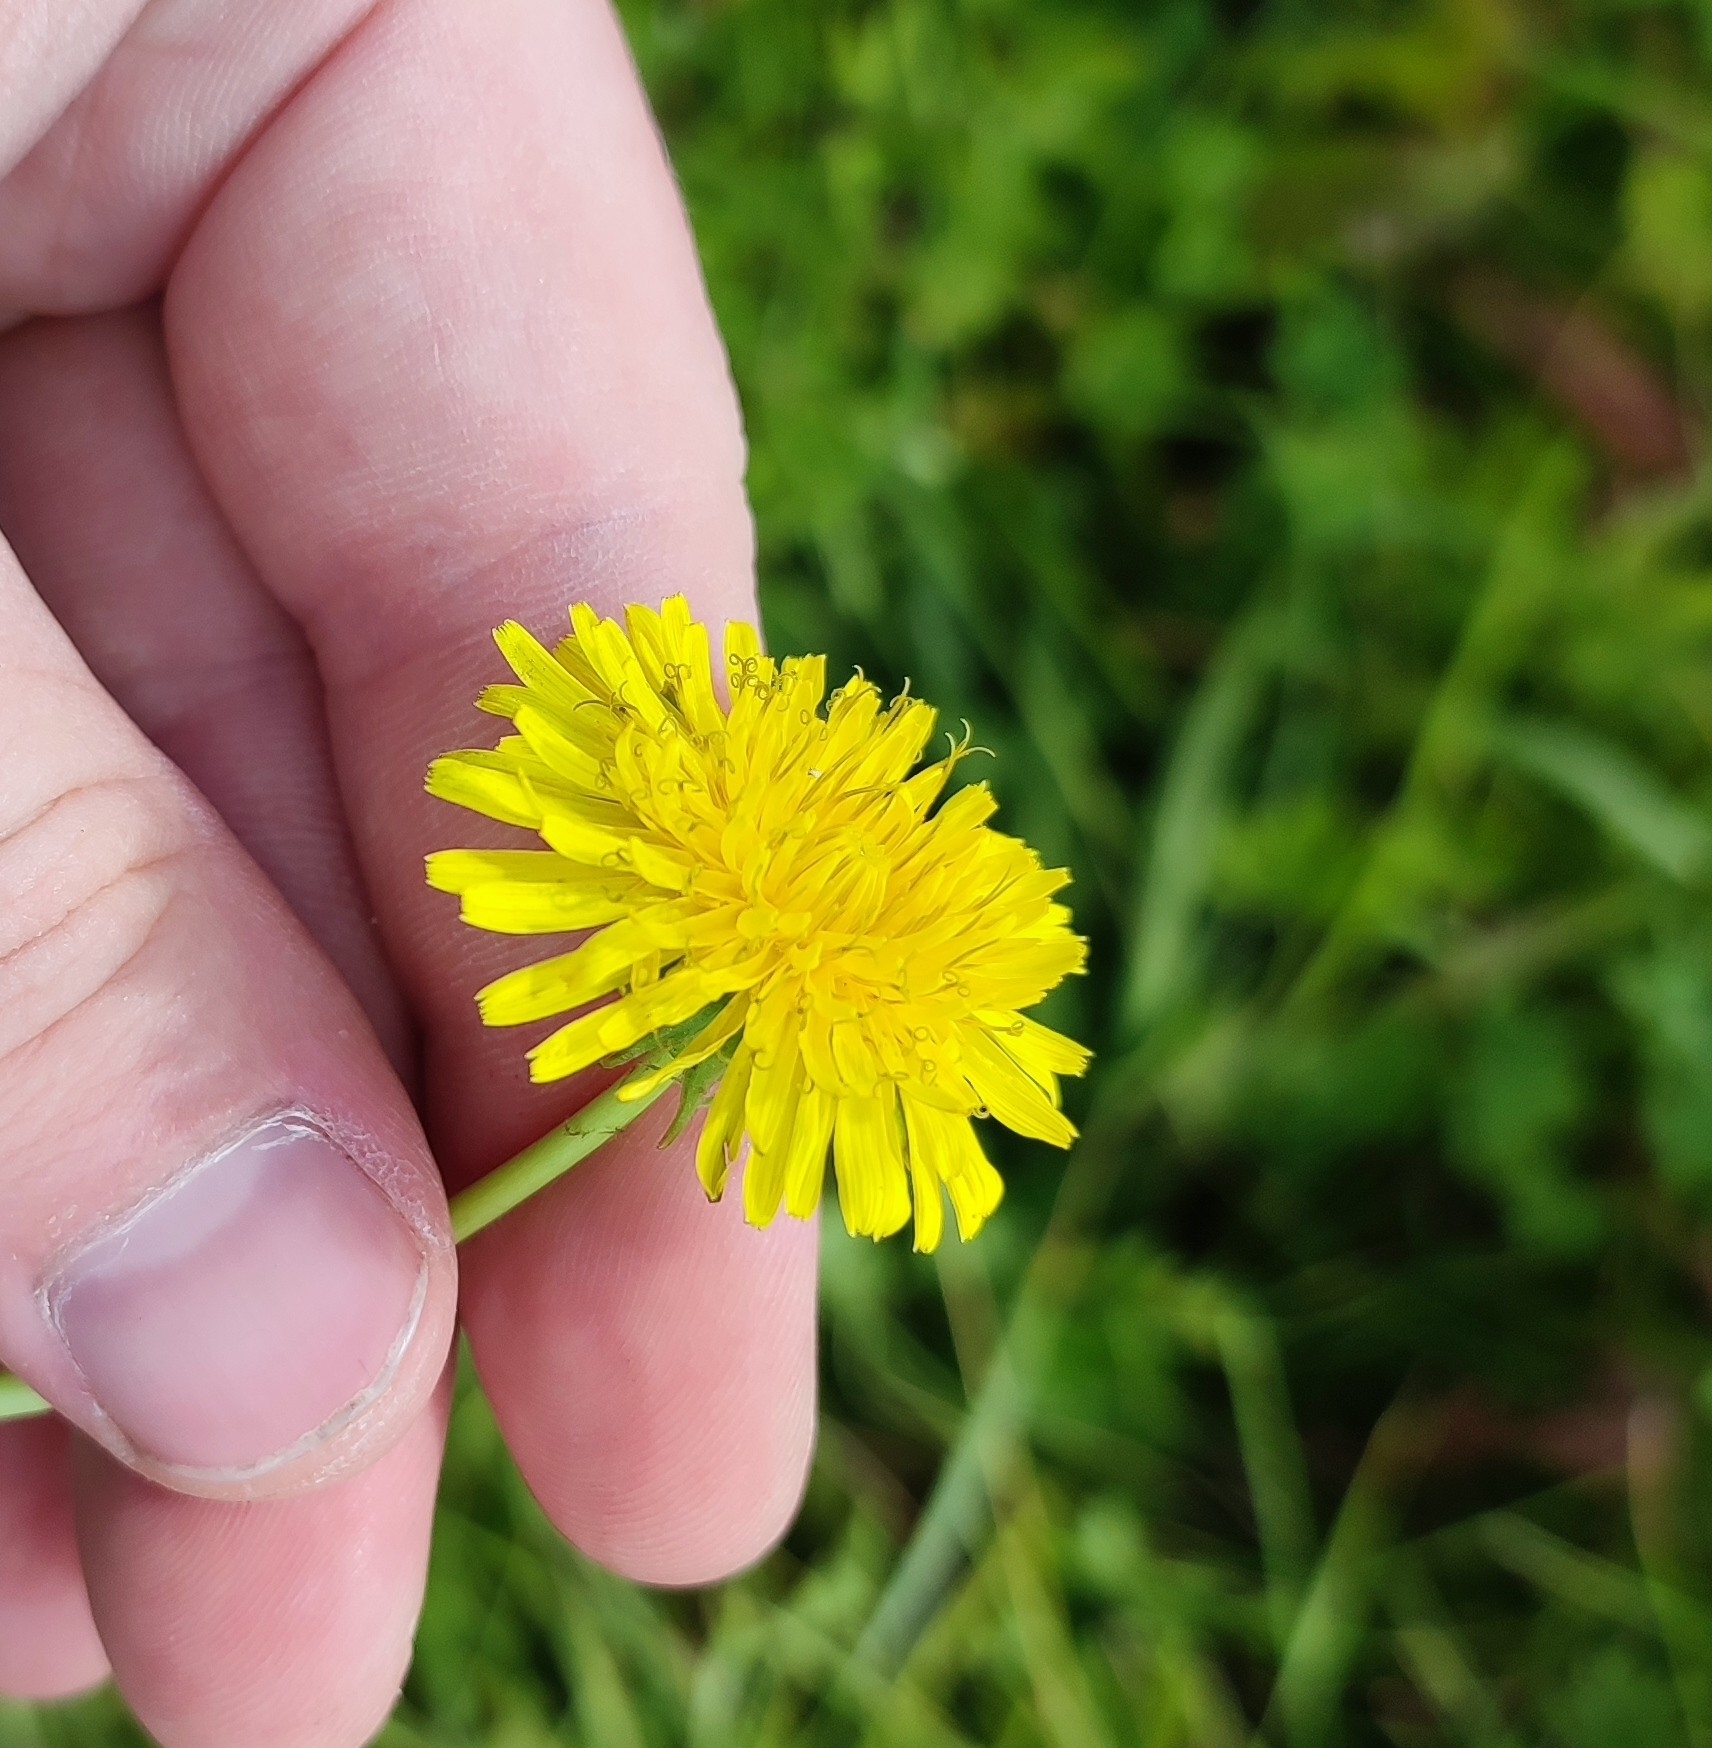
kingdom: Plantae
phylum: Tracheophyta
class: Magnoliopsida
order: Asterales
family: Asteraceae
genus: Taraxacum
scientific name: Taraxacum officinale
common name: Common dandelion
